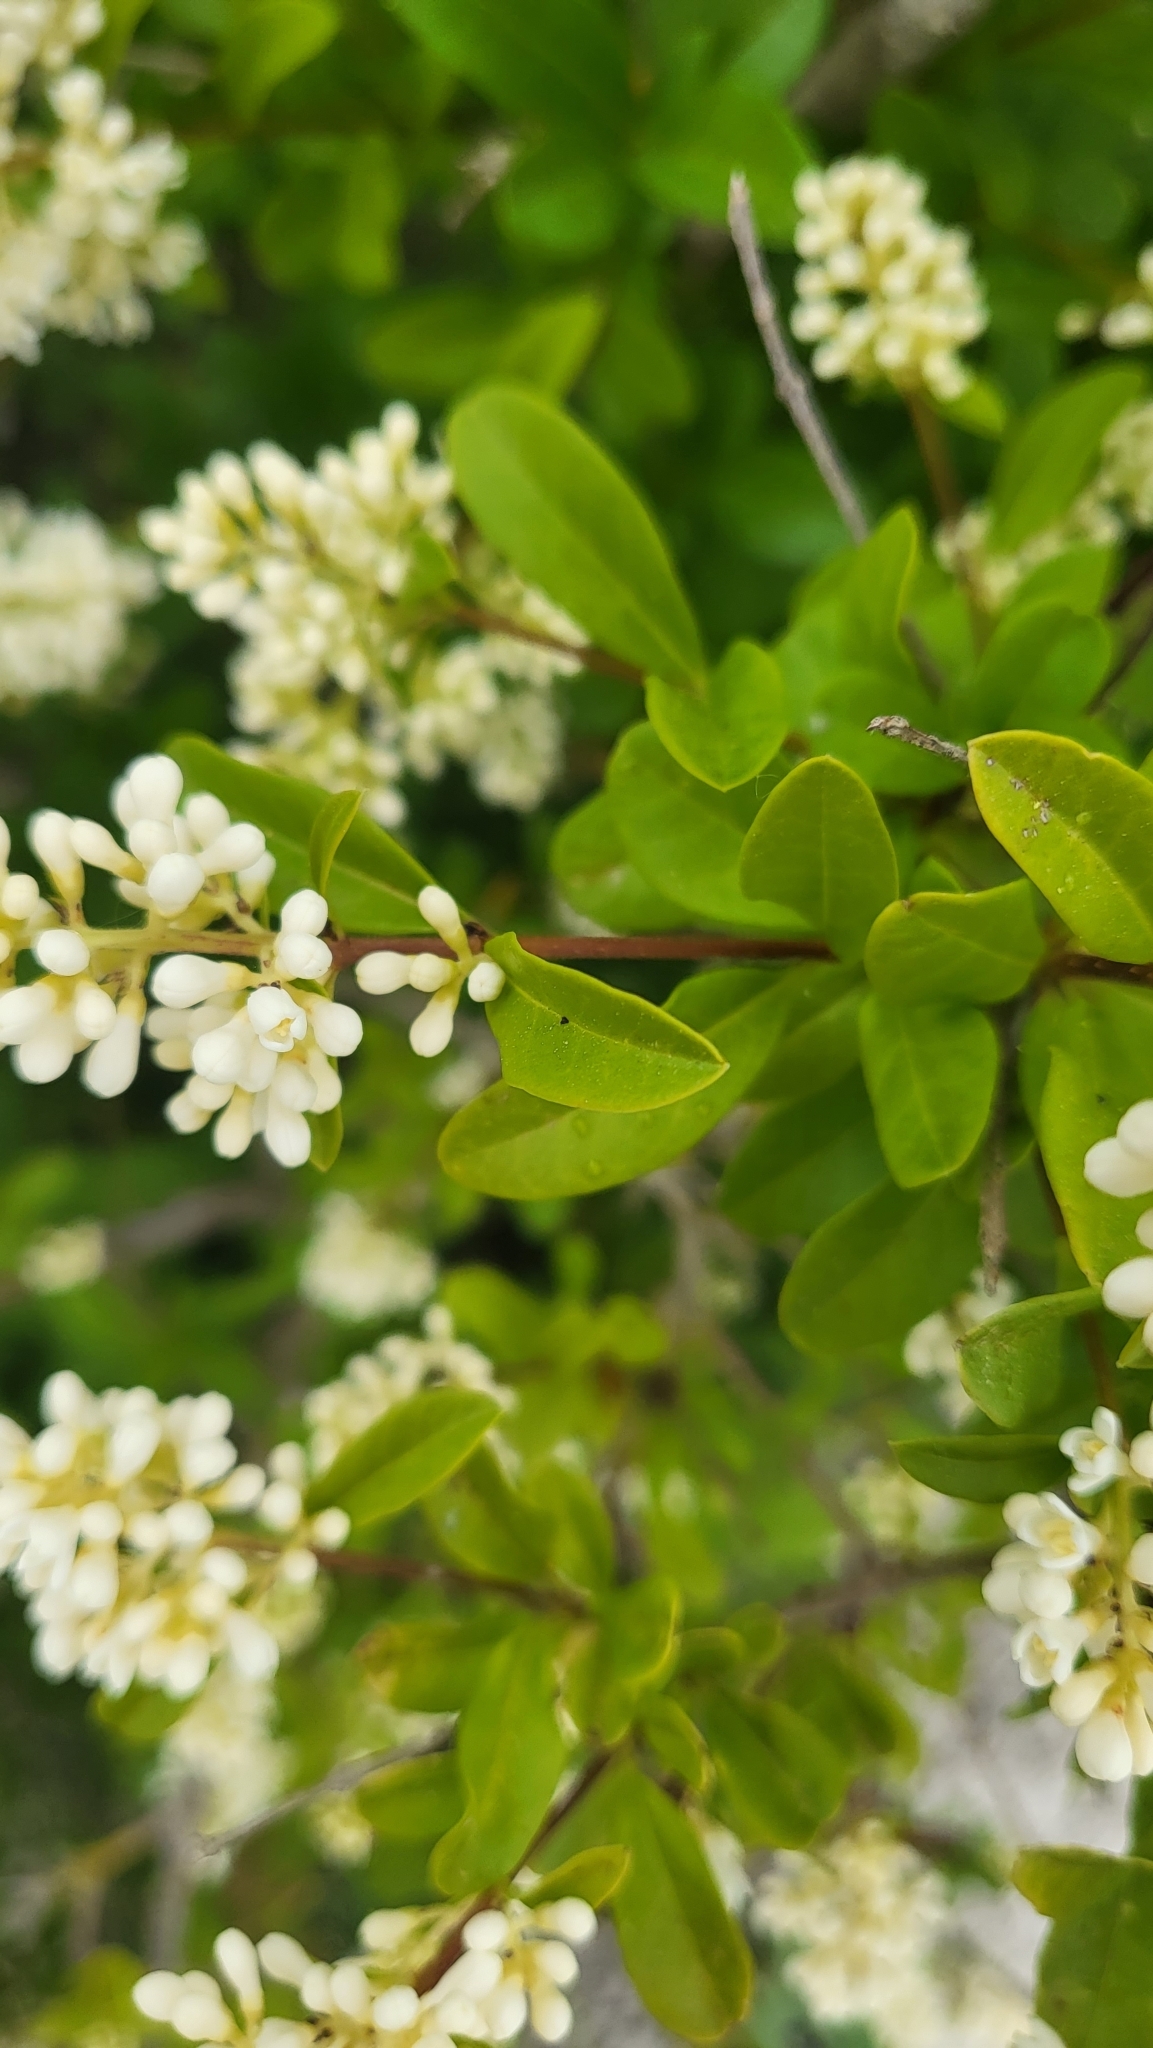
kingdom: Plantae
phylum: Tracheophyta
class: Magnoliopsida
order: Lamiales
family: Oleaceae
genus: Ligustrum
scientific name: Ligustrum vulgare
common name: Wild privet
